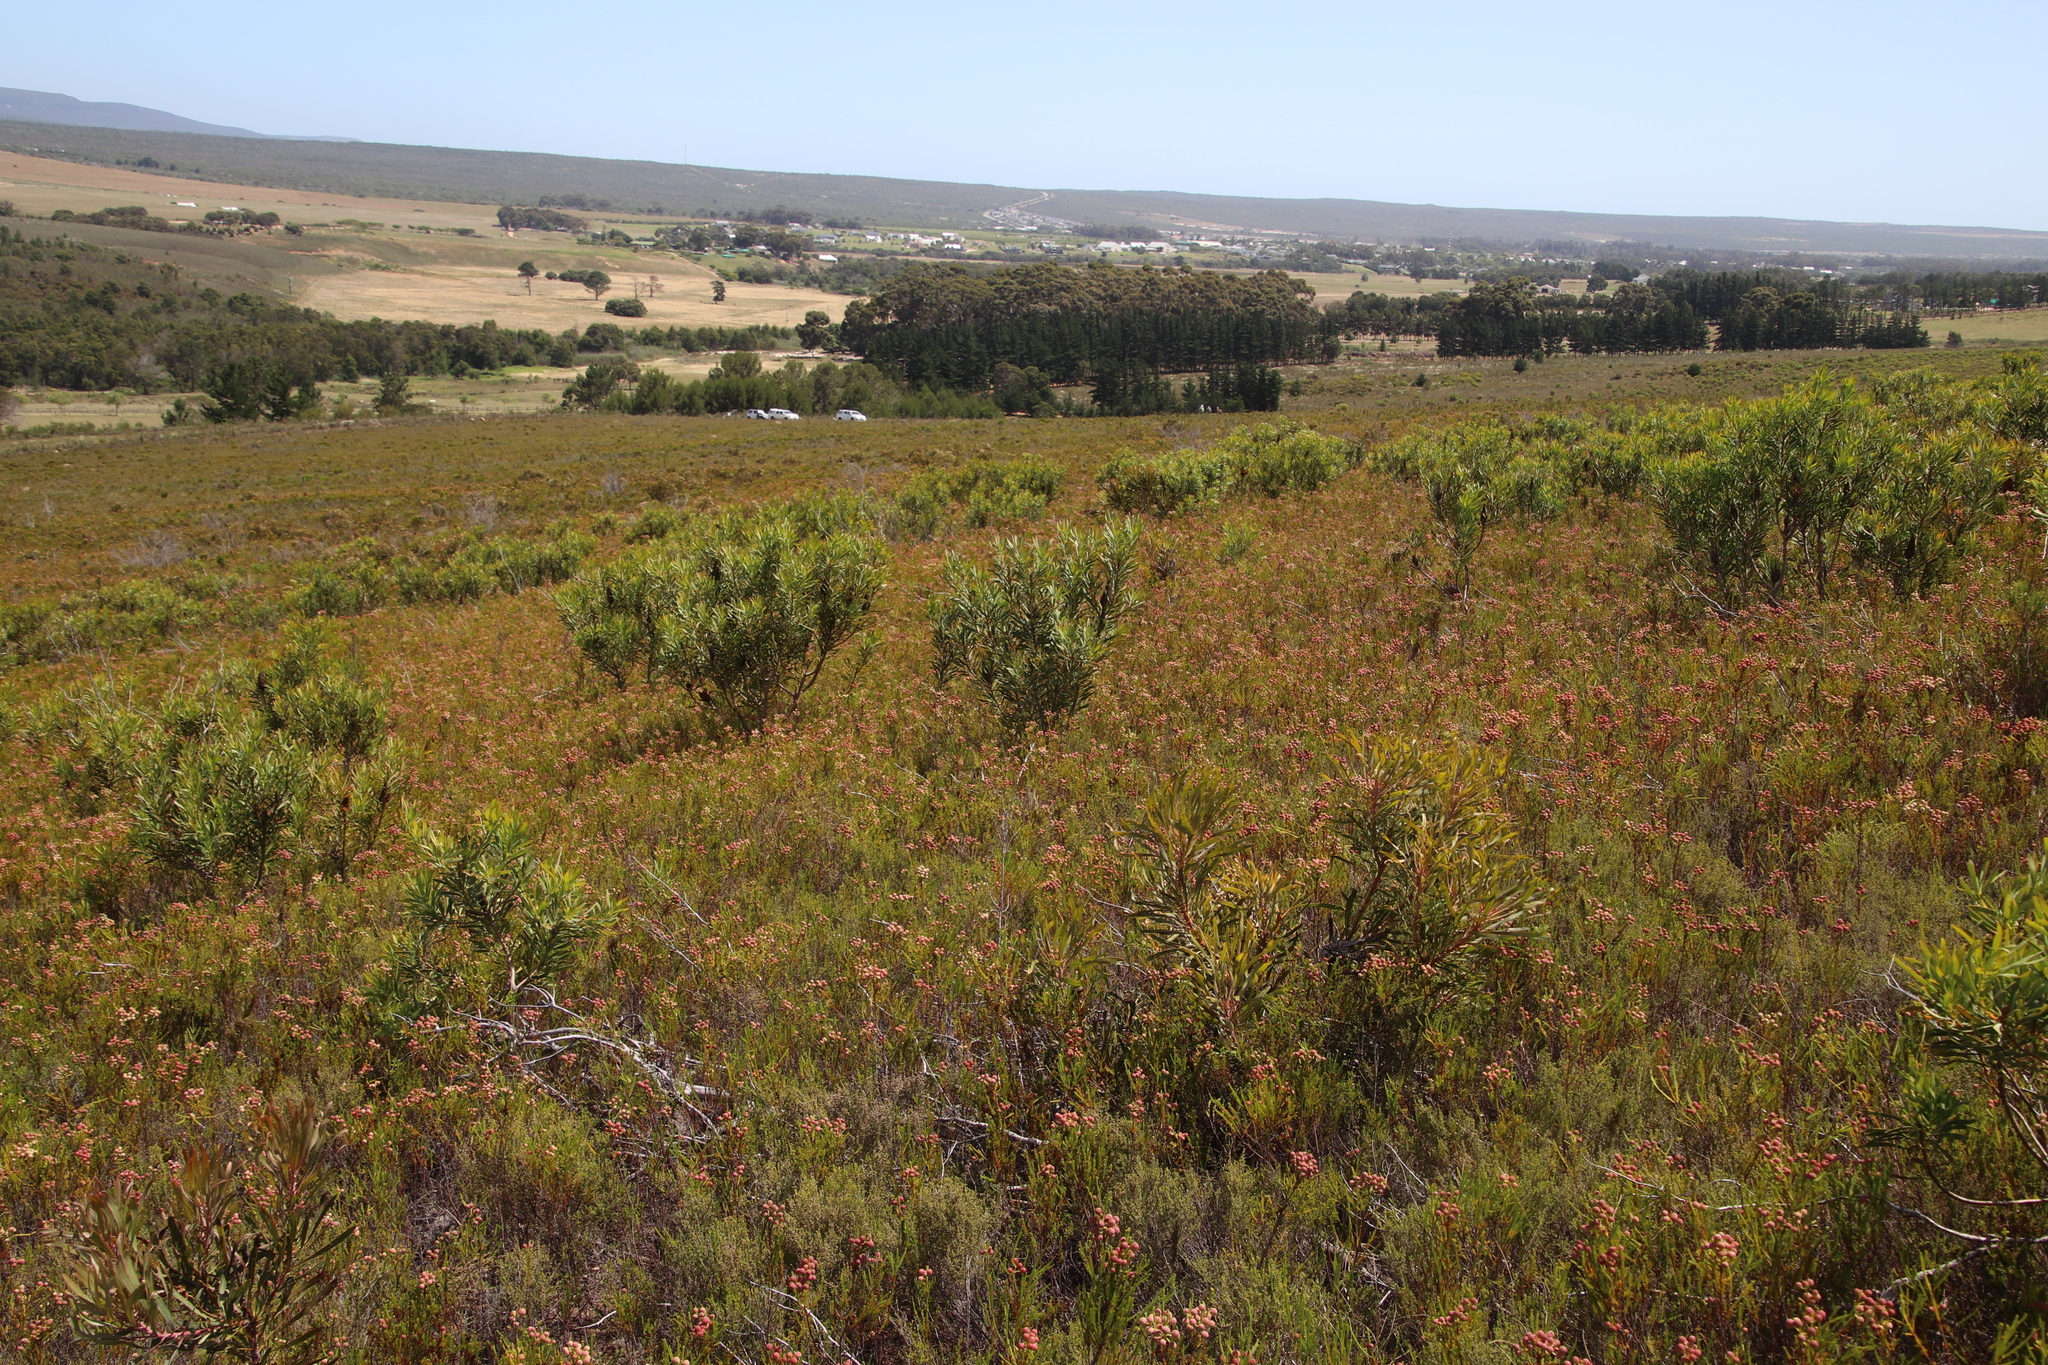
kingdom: Plantae
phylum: Tracheophyta
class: Magnoliopsida
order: Bruniales
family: Bruniaceae
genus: Berzelia
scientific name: Berzelia lanuginosa
